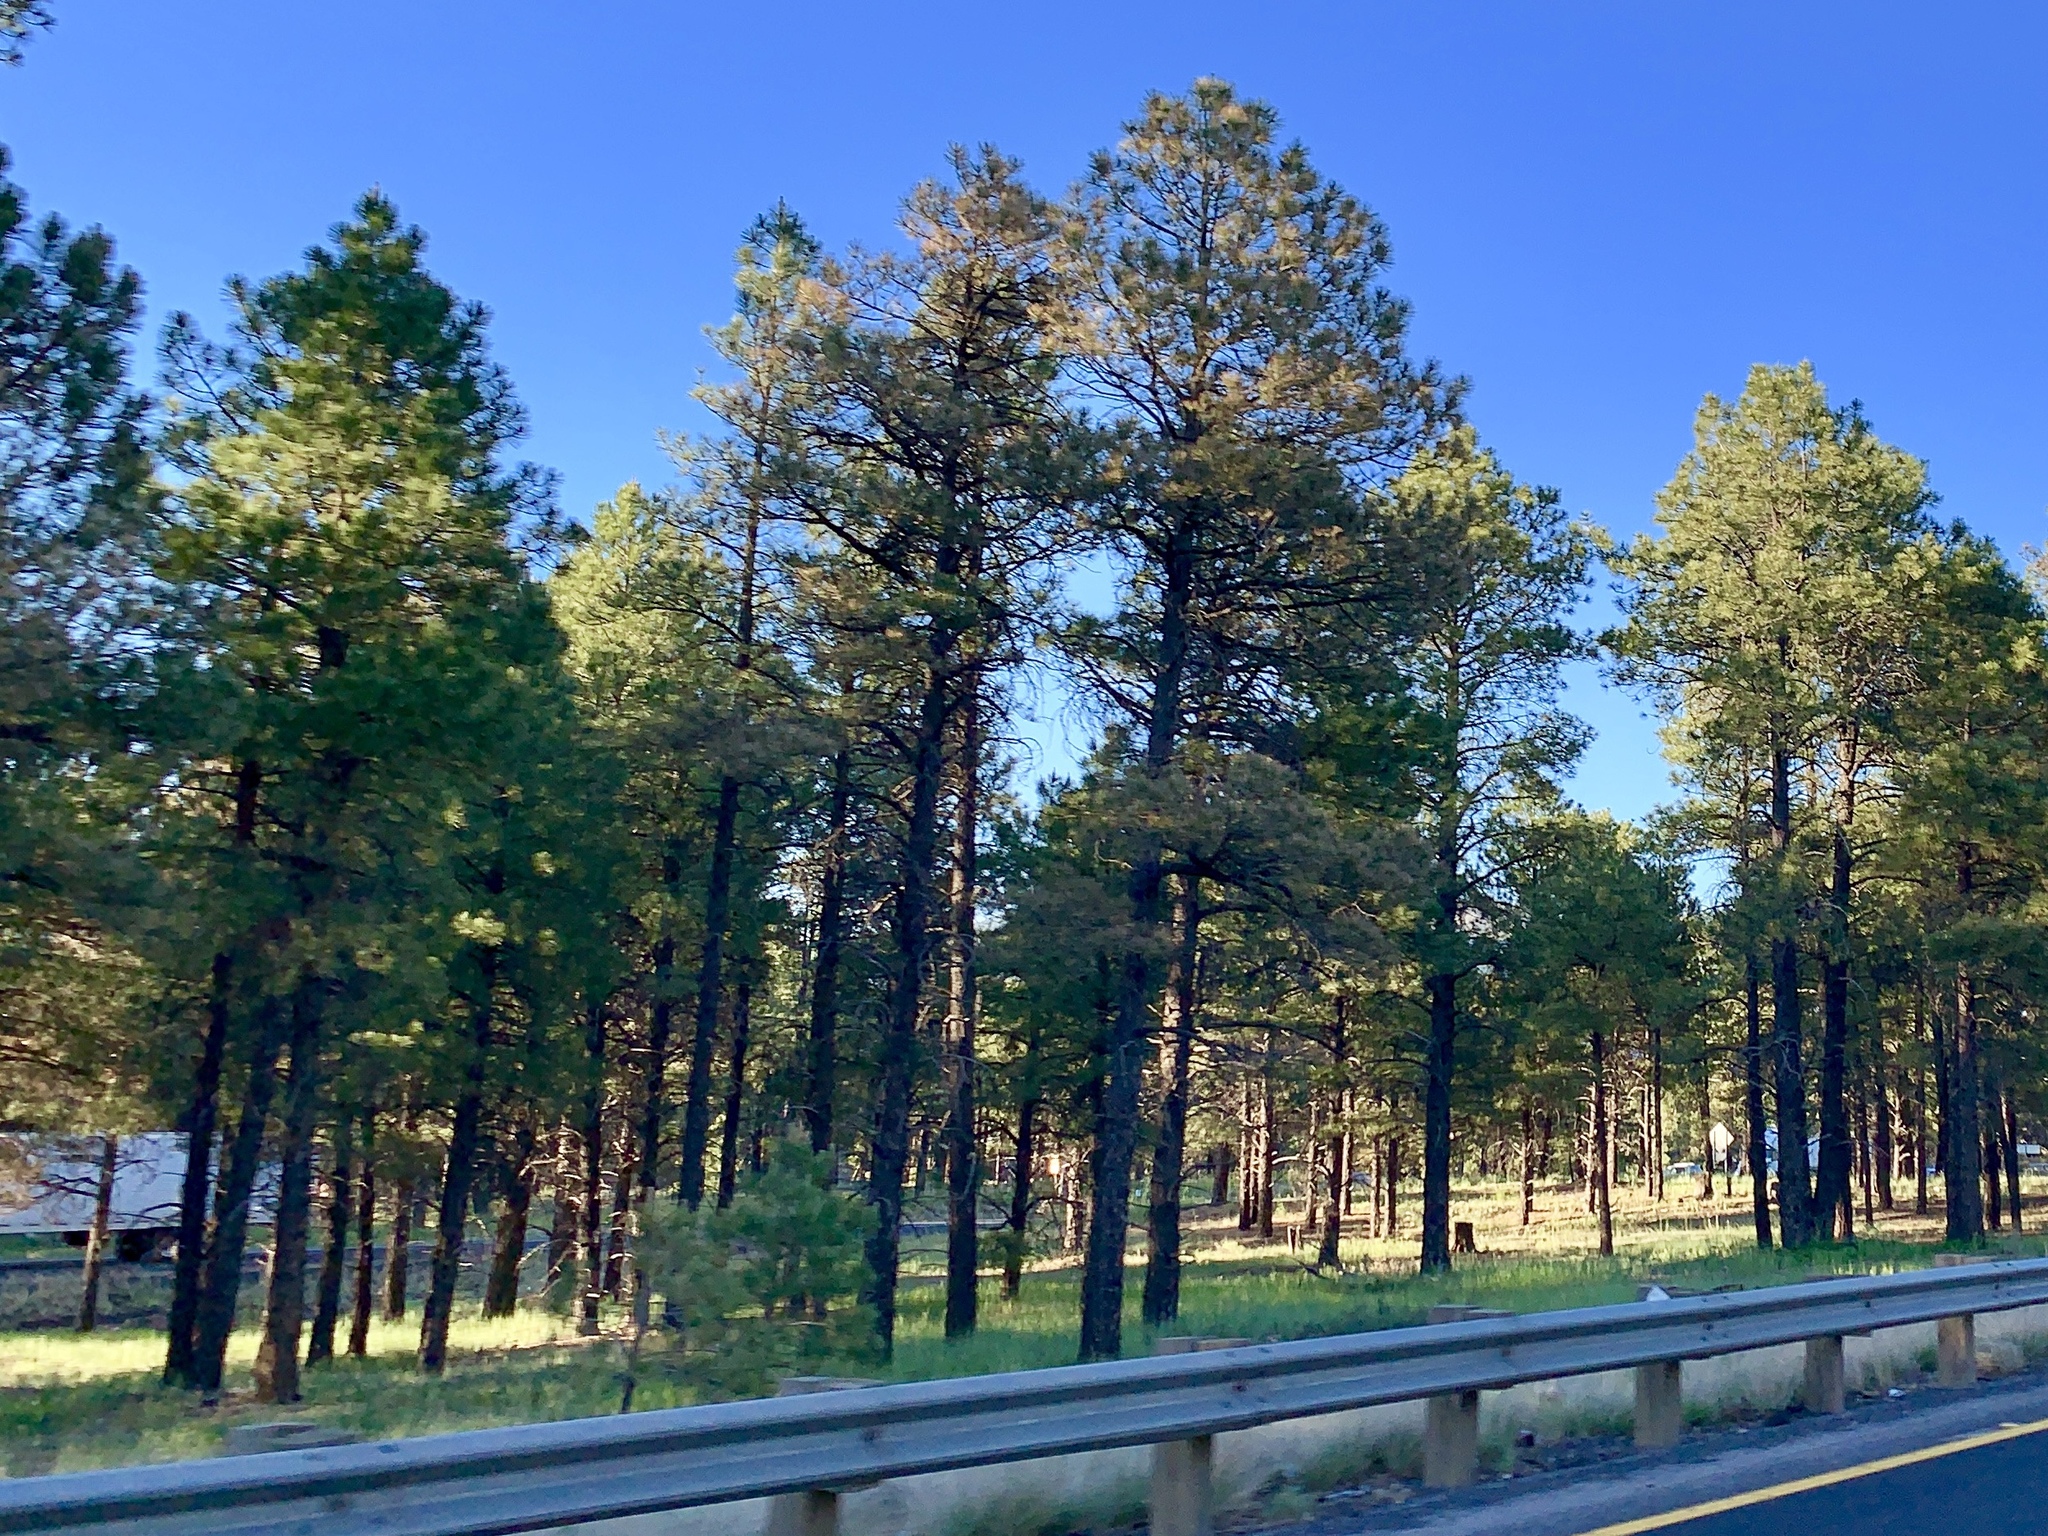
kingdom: Plantae
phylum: Tracheophyta
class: Pinopsida
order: Pinales
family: Pinaceae
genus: Pinus
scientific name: Pinus ponderosa
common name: Western yellow-pine
